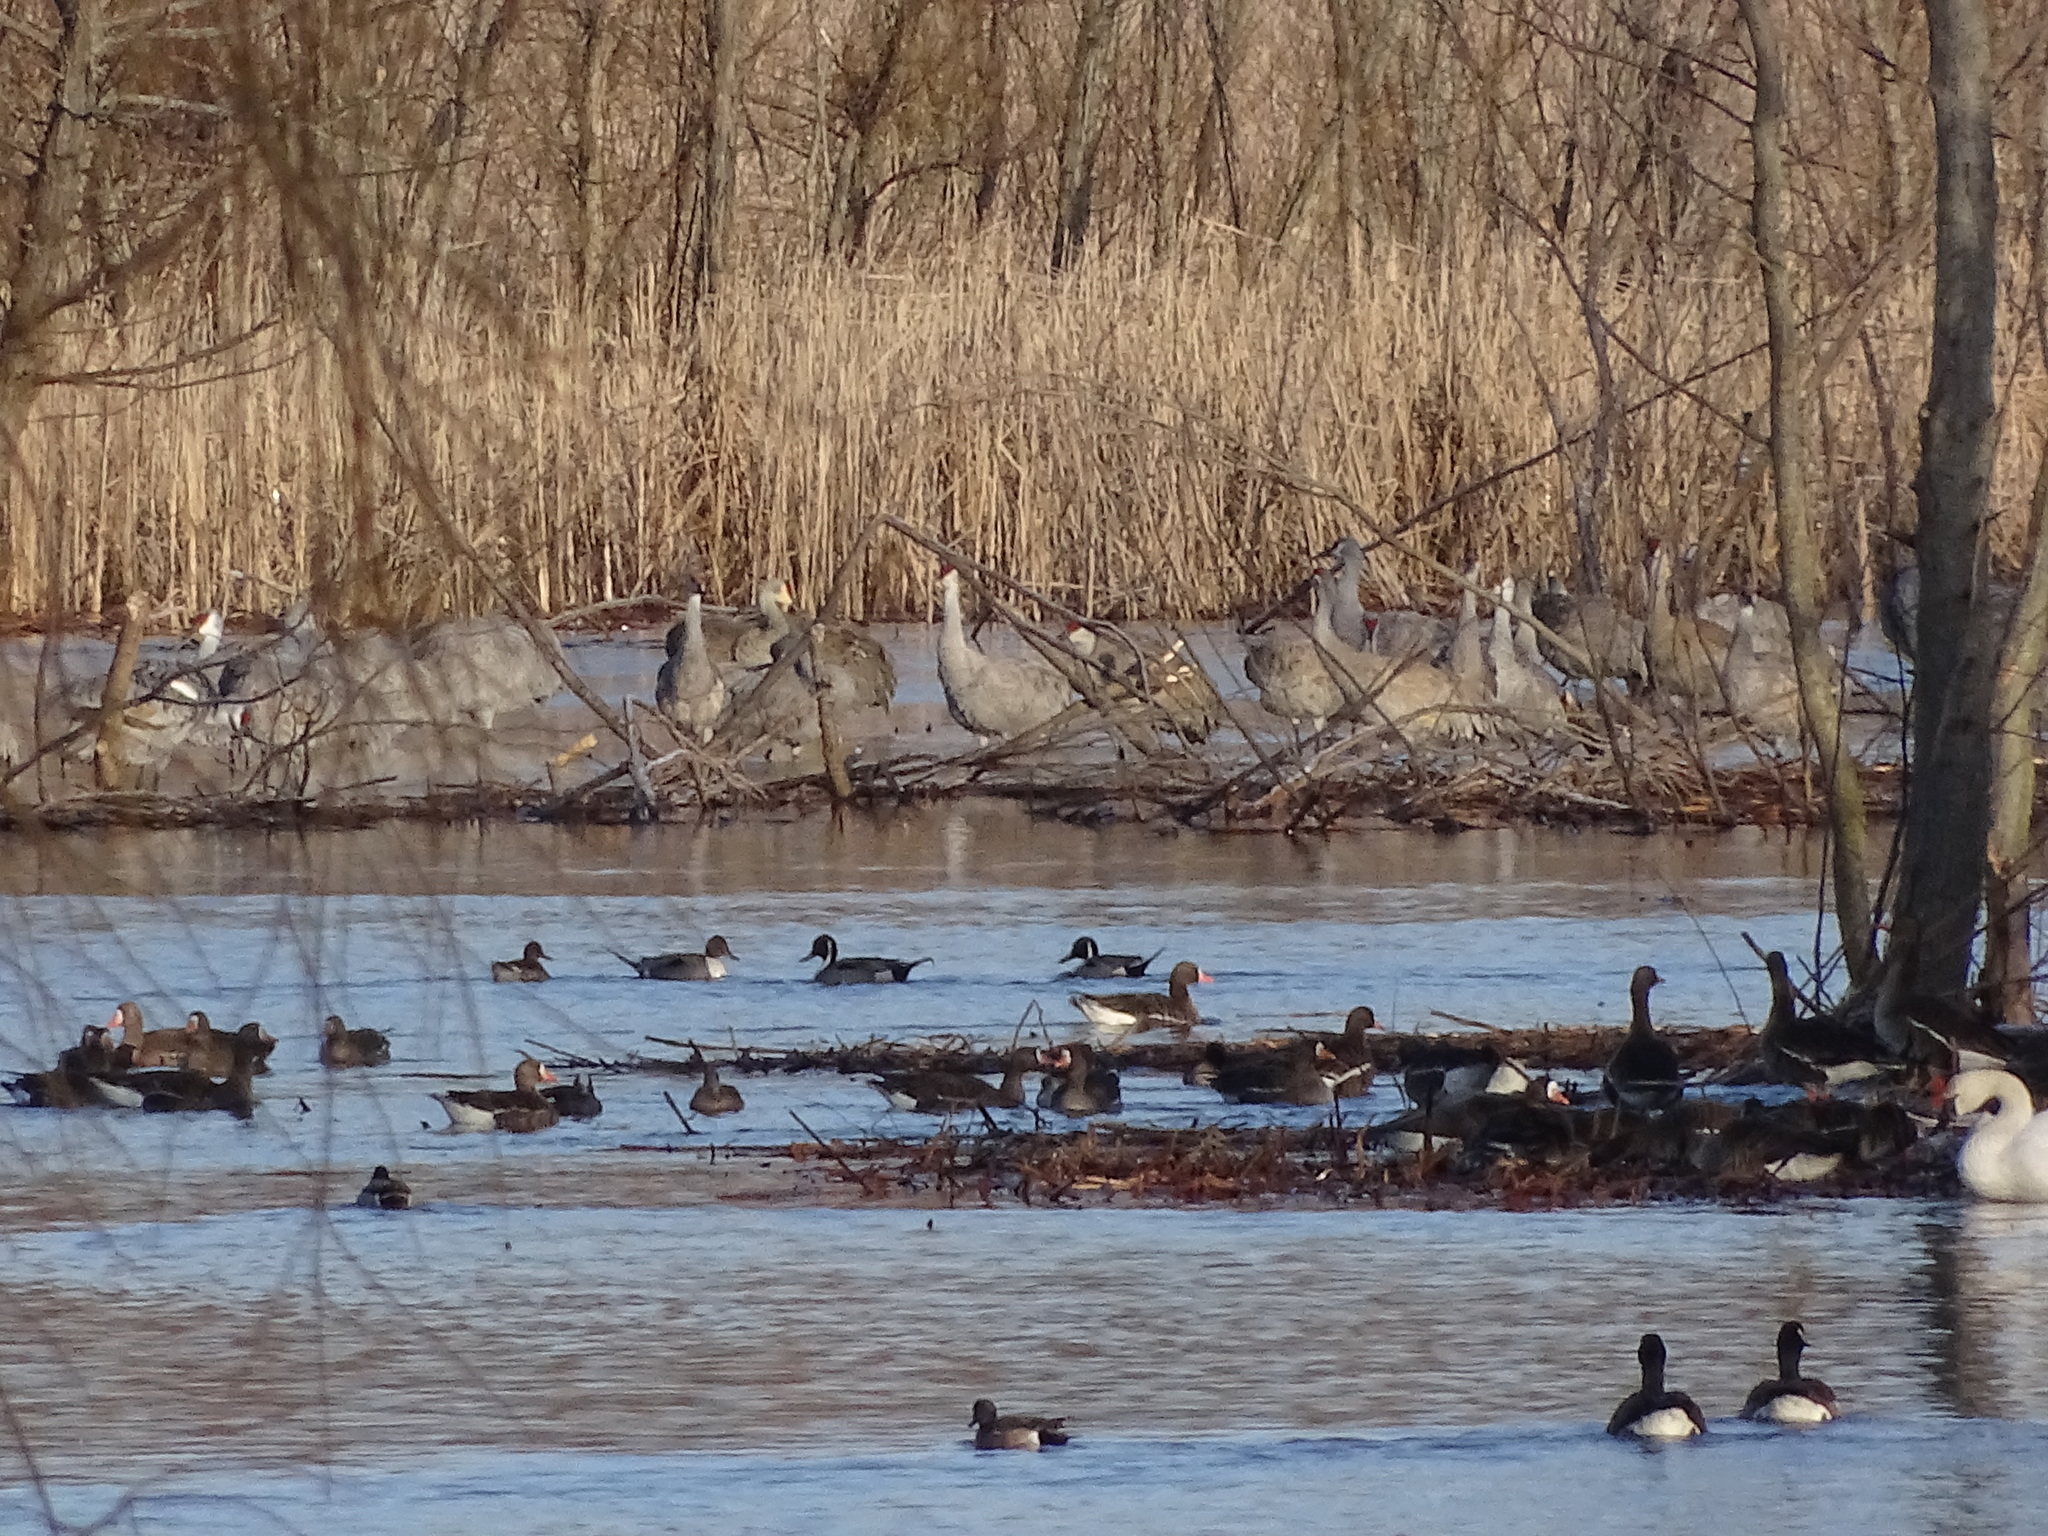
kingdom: Animalia
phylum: Chordata
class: Aves
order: Gruiformes
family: Gruidae
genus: Grus
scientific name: Grus canadensis
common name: Sandhill crane
